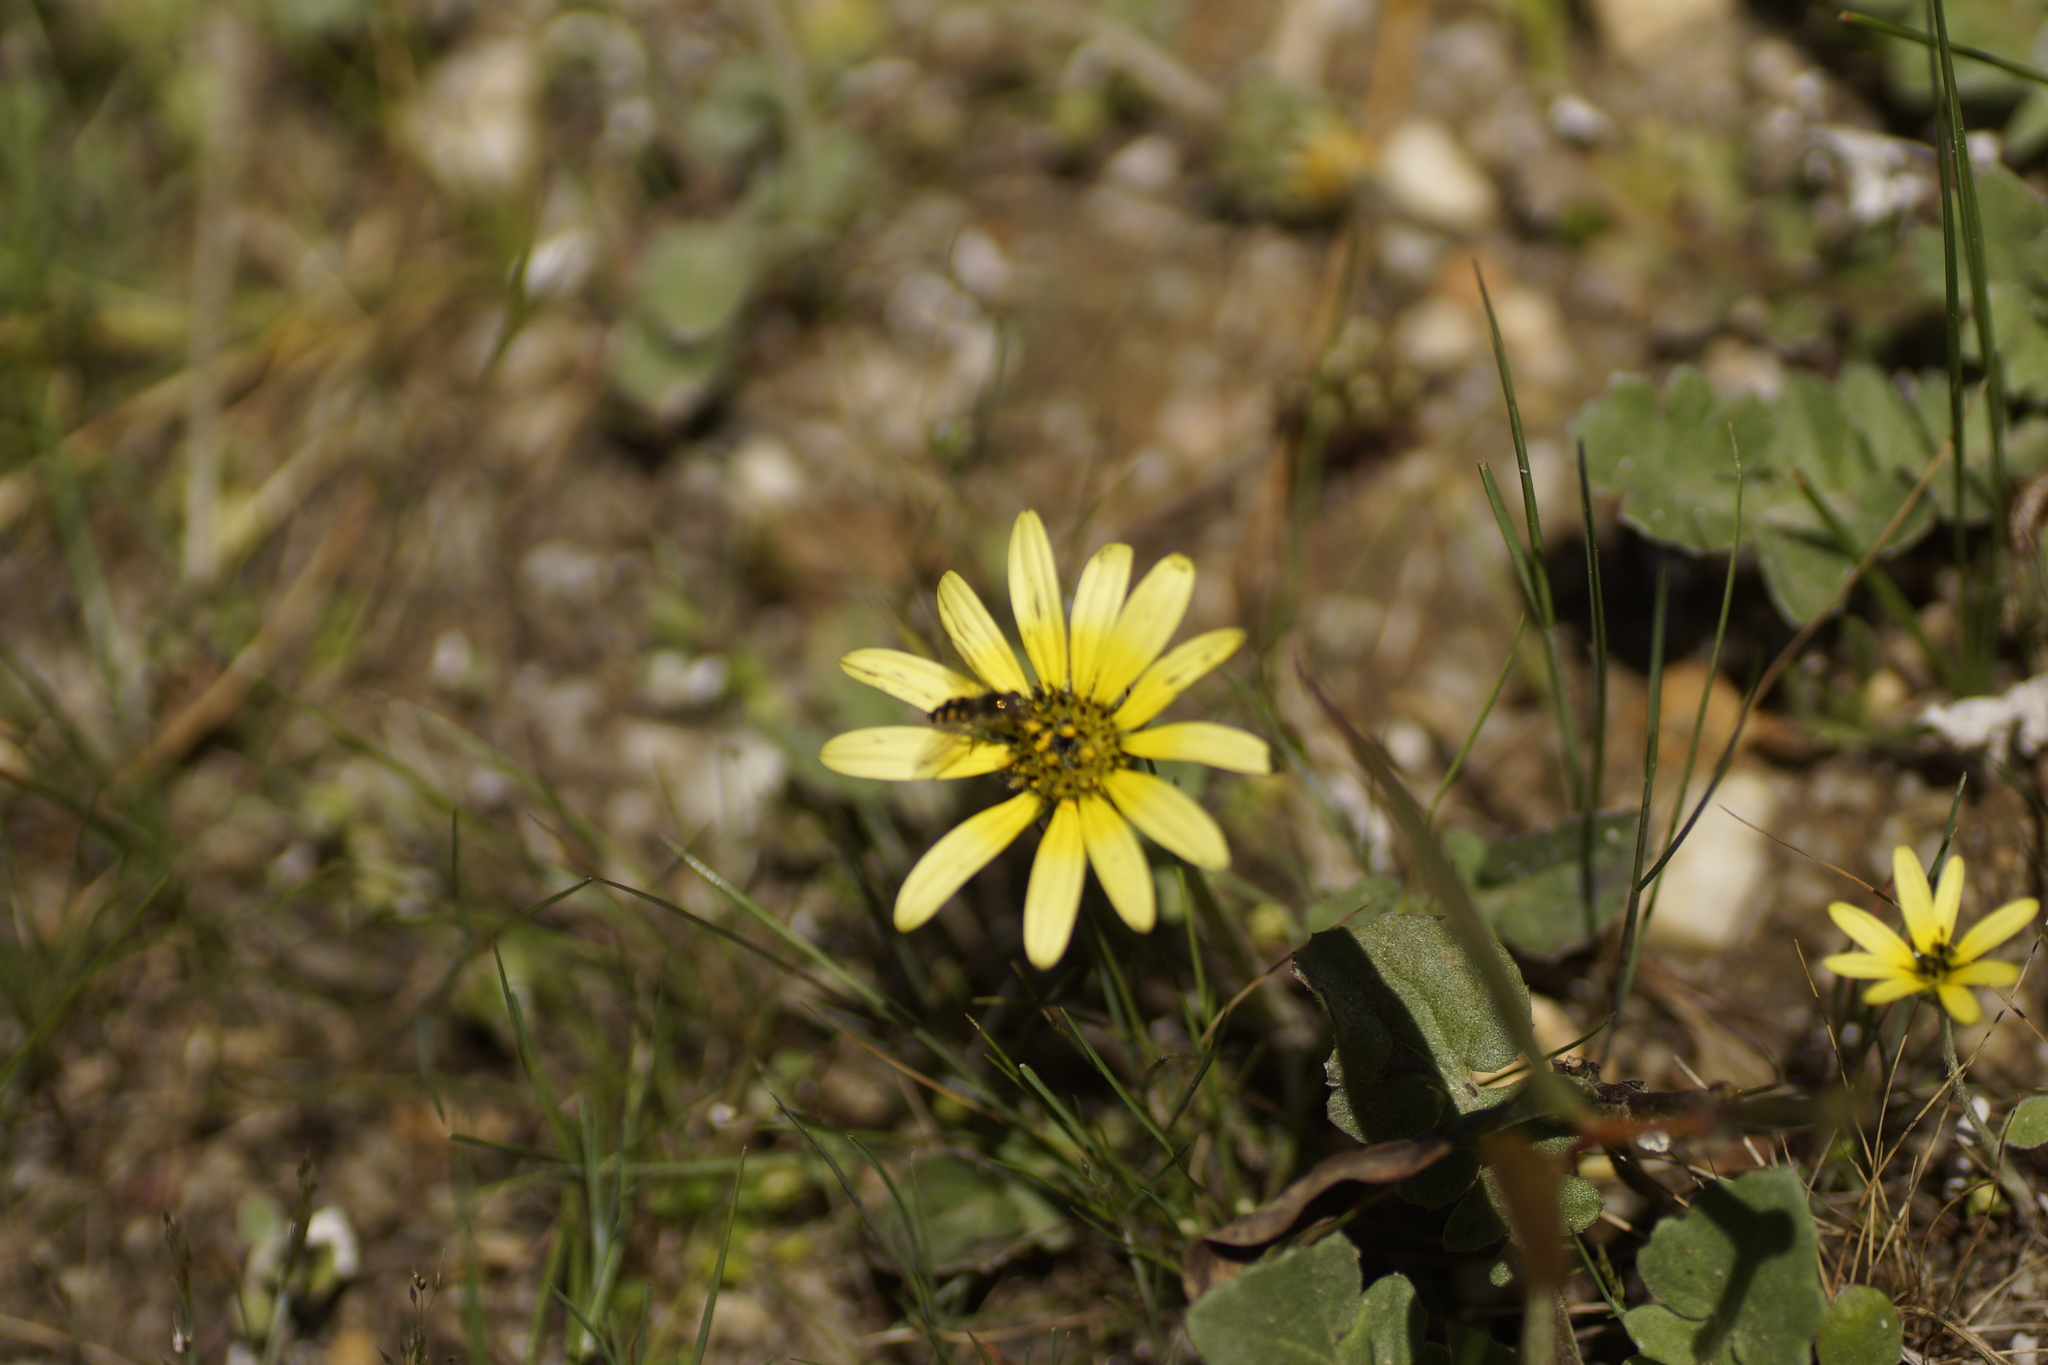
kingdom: Plantae
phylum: Tracheophyta
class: Magnoliopsida
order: Asterales
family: Asteraceae
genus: Arctotheca
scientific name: Arctotheca calendula
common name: Capeweed
